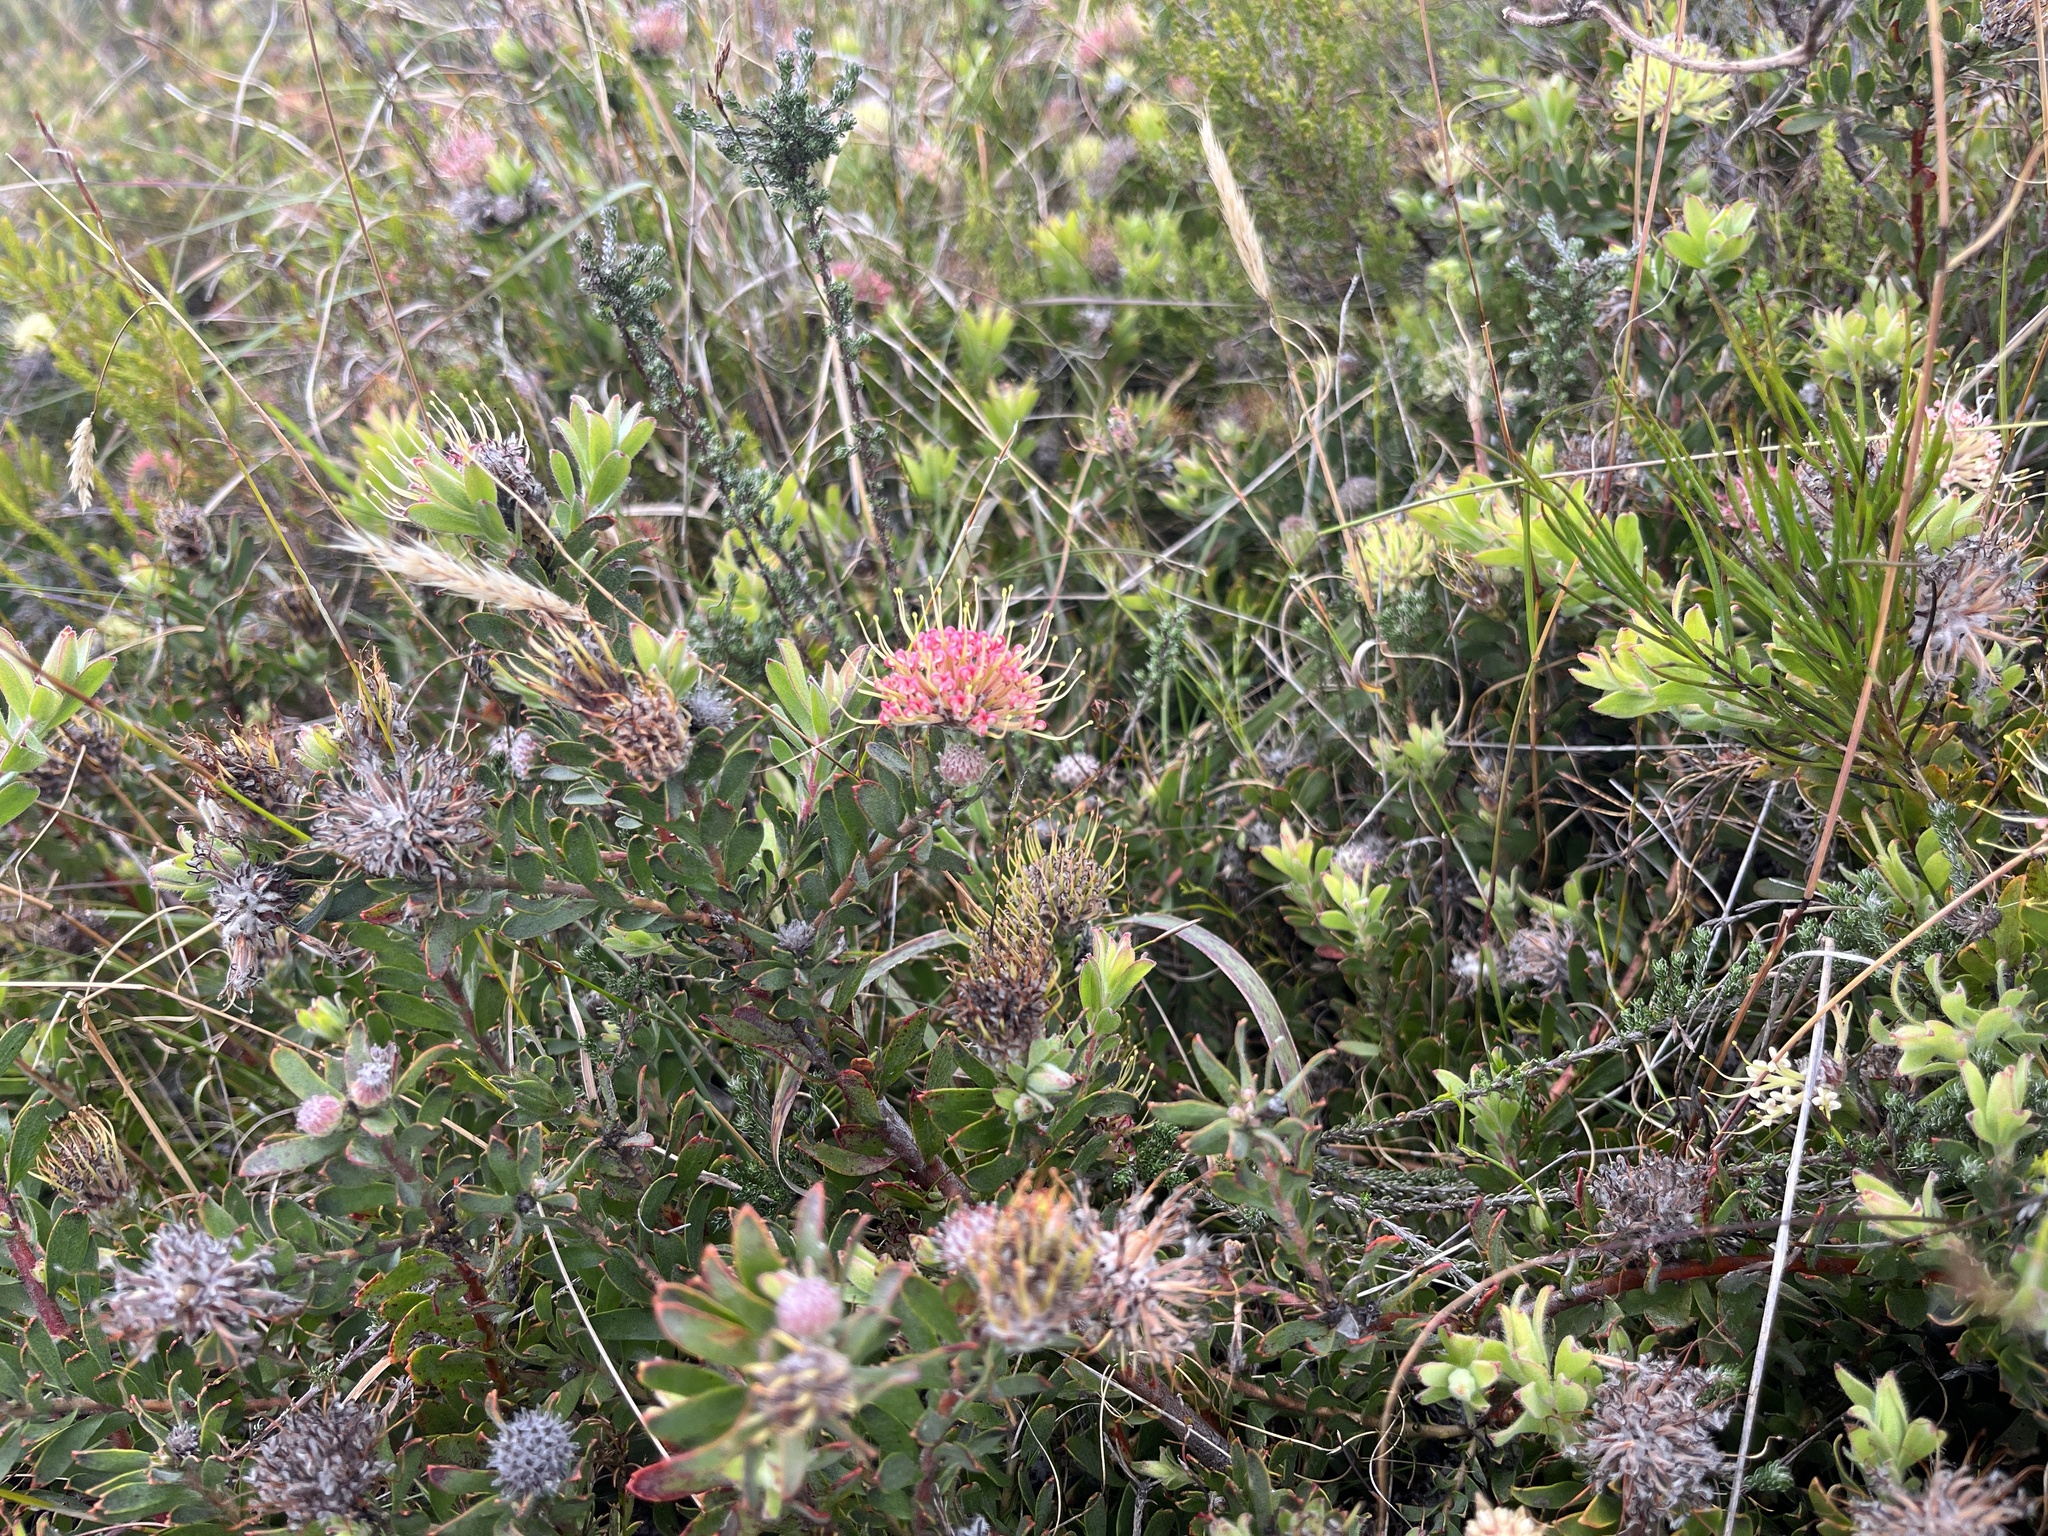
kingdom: Plantae
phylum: Tracheophyta
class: Magnoliopsida
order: Proteales
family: Proteaceae
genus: Leucospermum
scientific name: Leucospermum heterophyllum
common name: Trident pincushion
